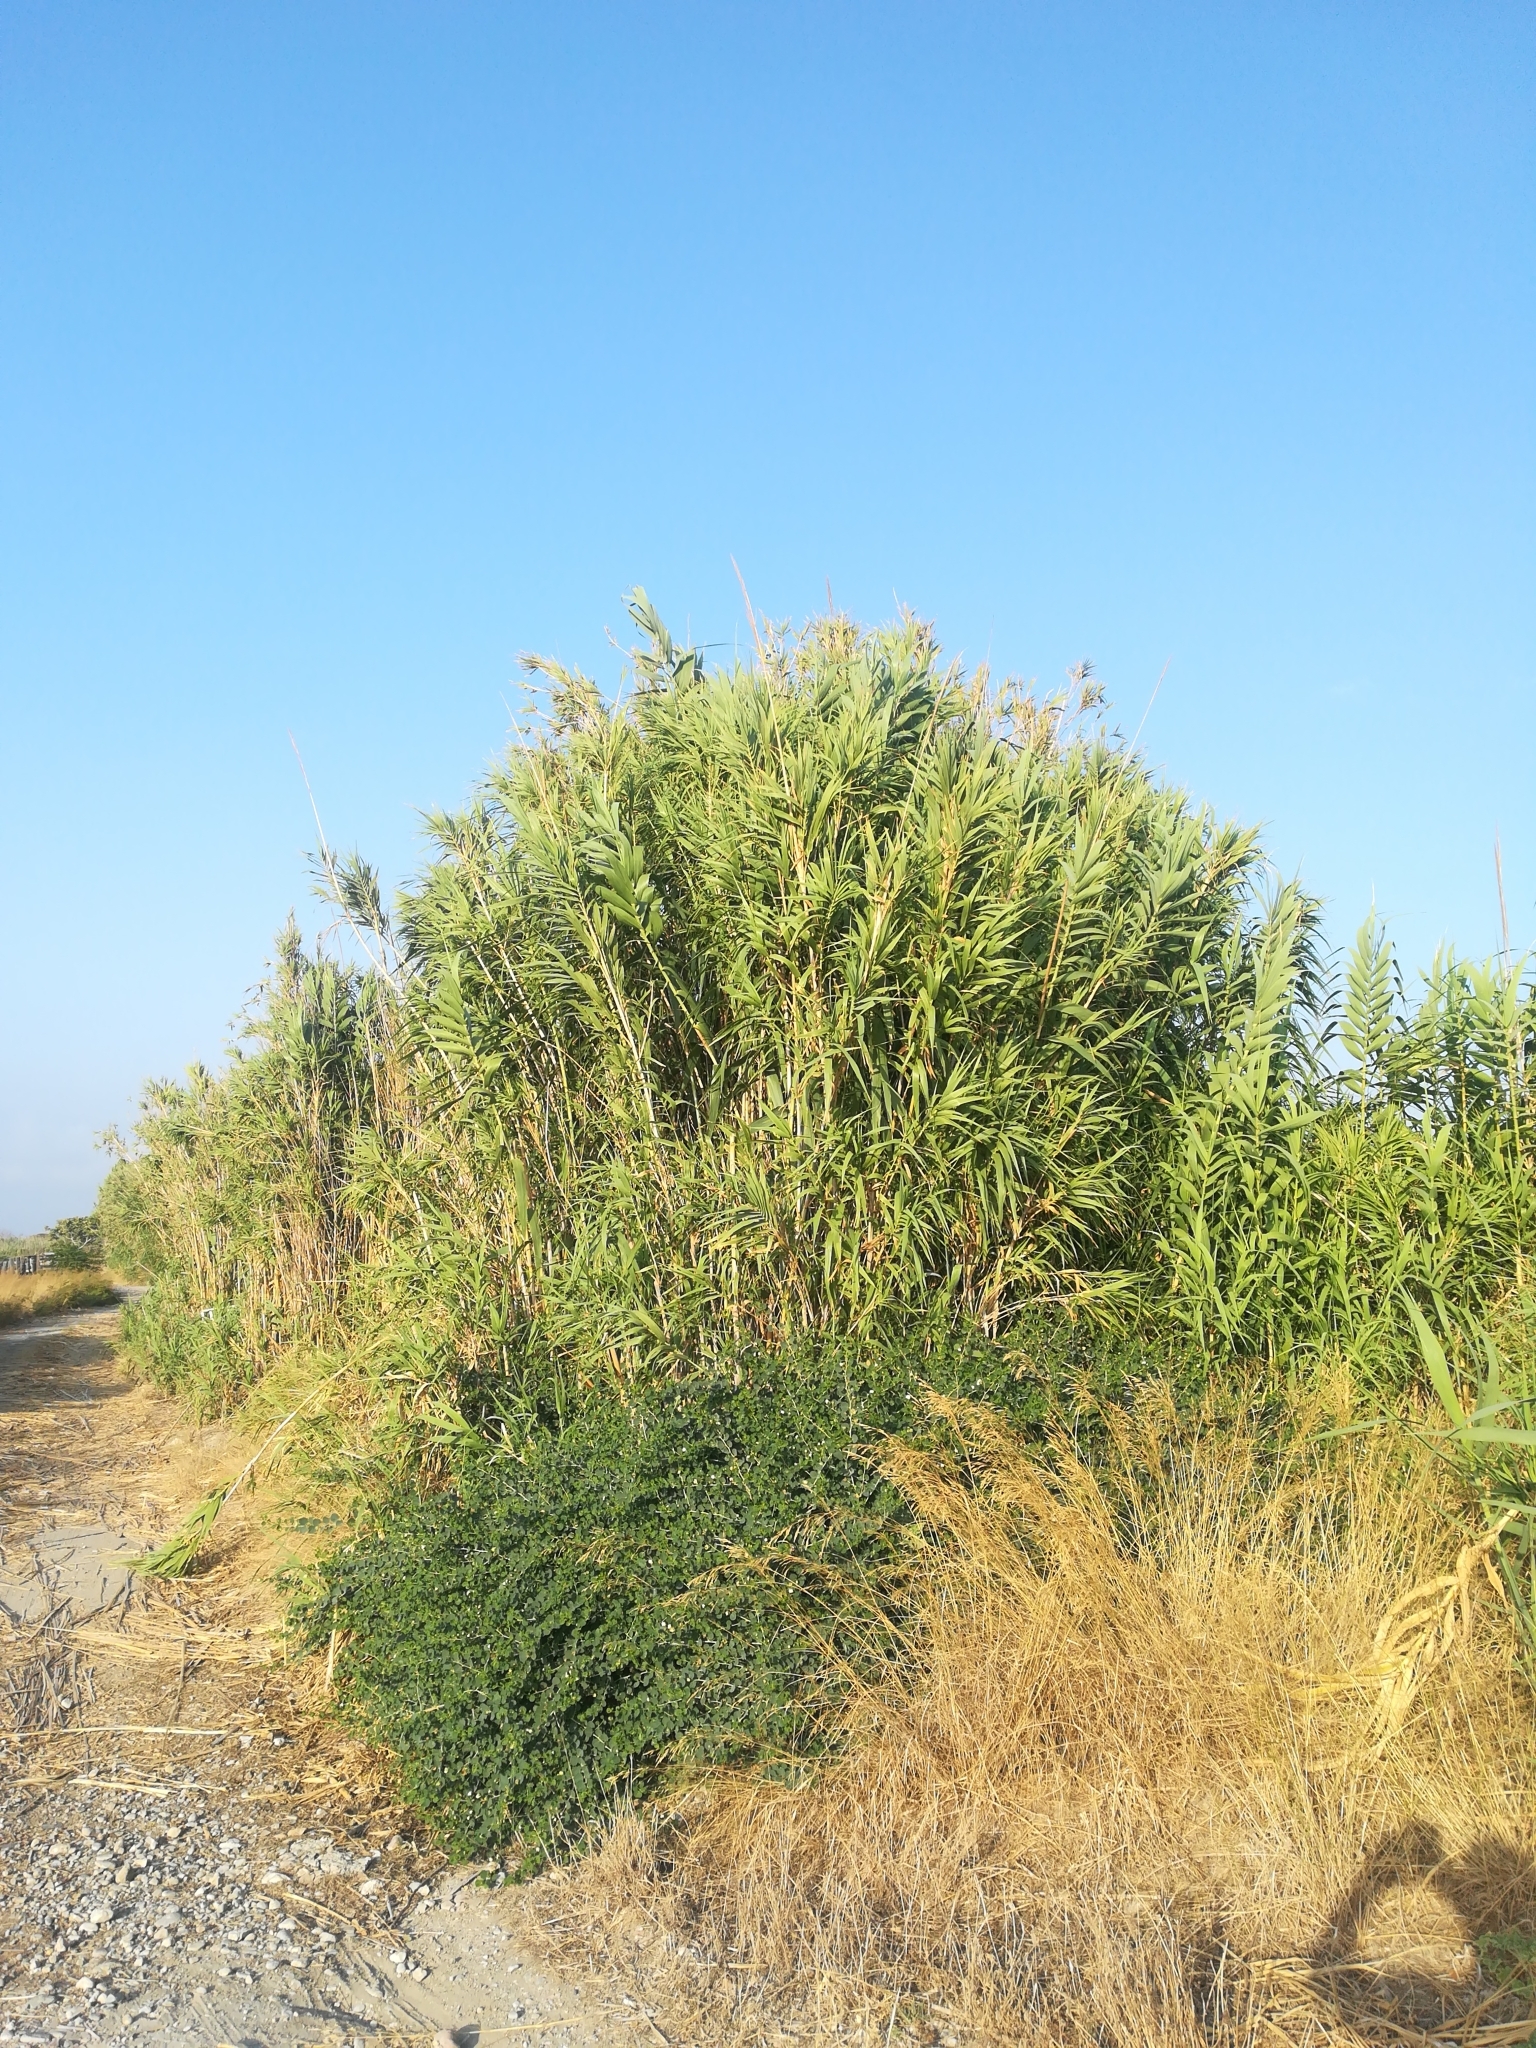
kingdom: Plantae
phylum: Tracheophyta
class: Liliopsida
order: Poales
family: Poaceae
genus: Arundo
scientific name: Arundo donax
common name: Giant reed
